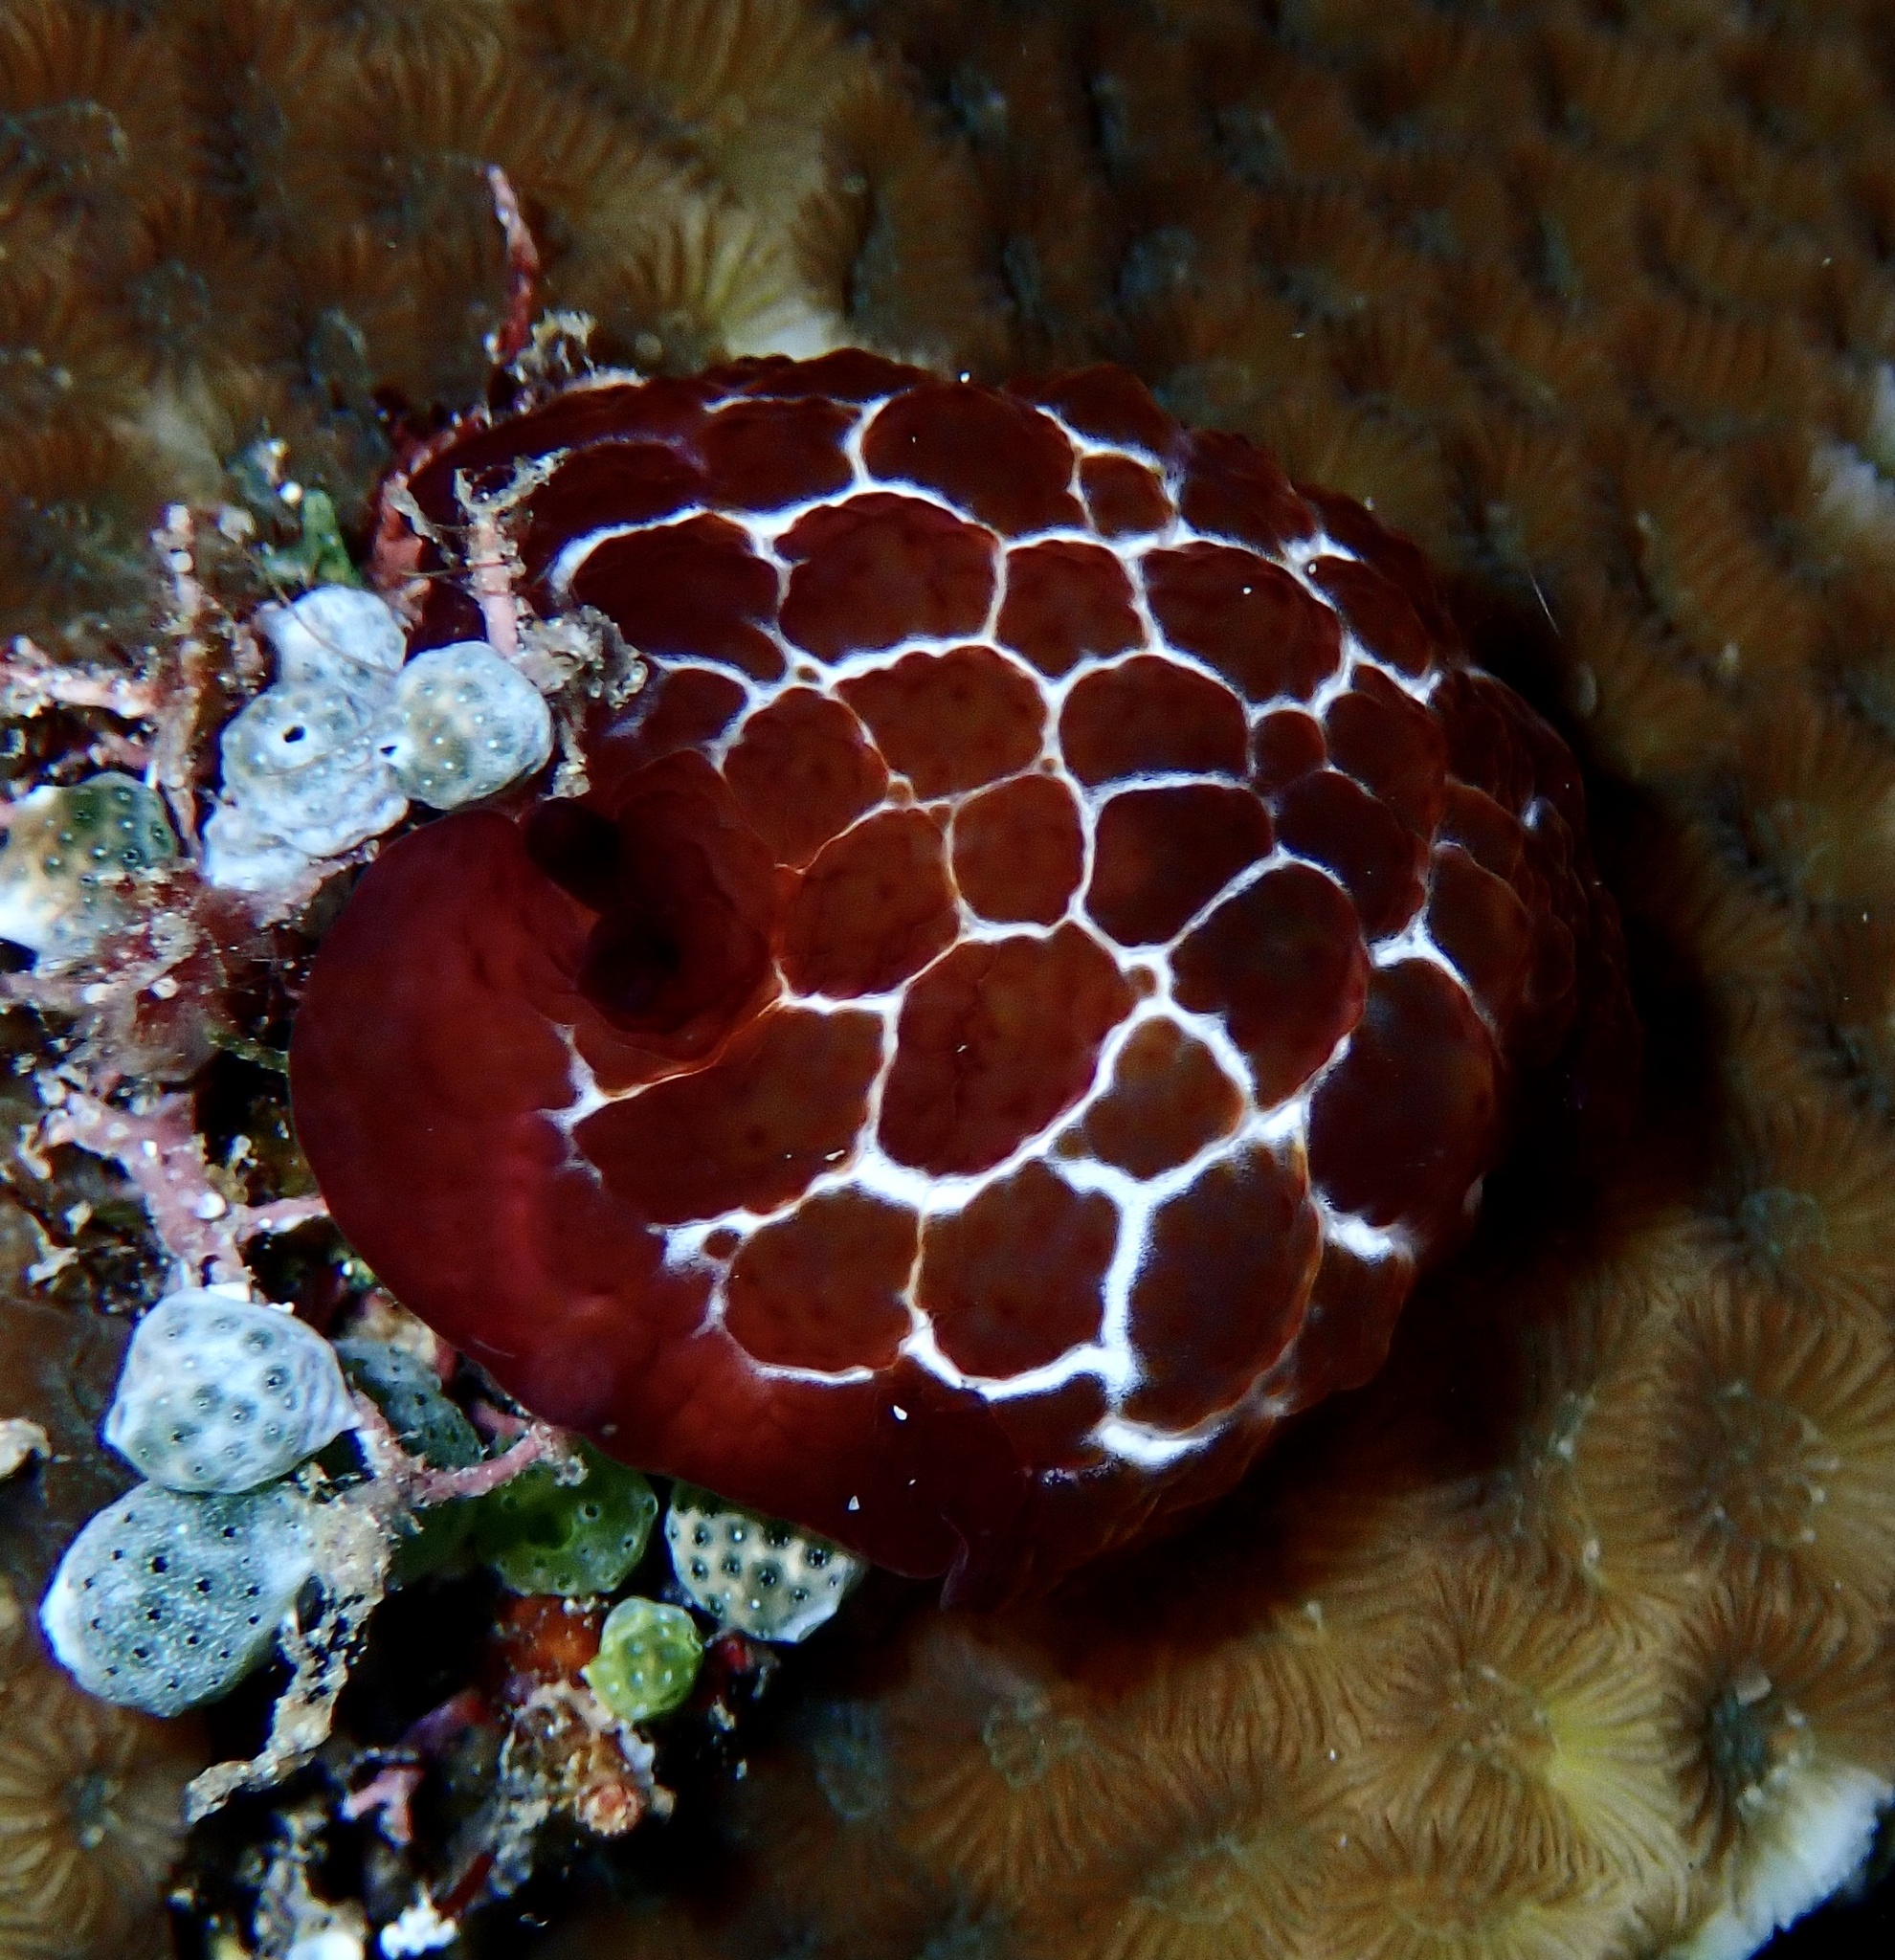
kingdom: Animalia
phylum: Mollusca
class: Gastropoda
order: Pleurobranchida
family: Pleurobranchidae
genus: Pleurobranchus
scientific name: Pleurobranchus forskalii
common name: Forskal's side-gilled sea slug
